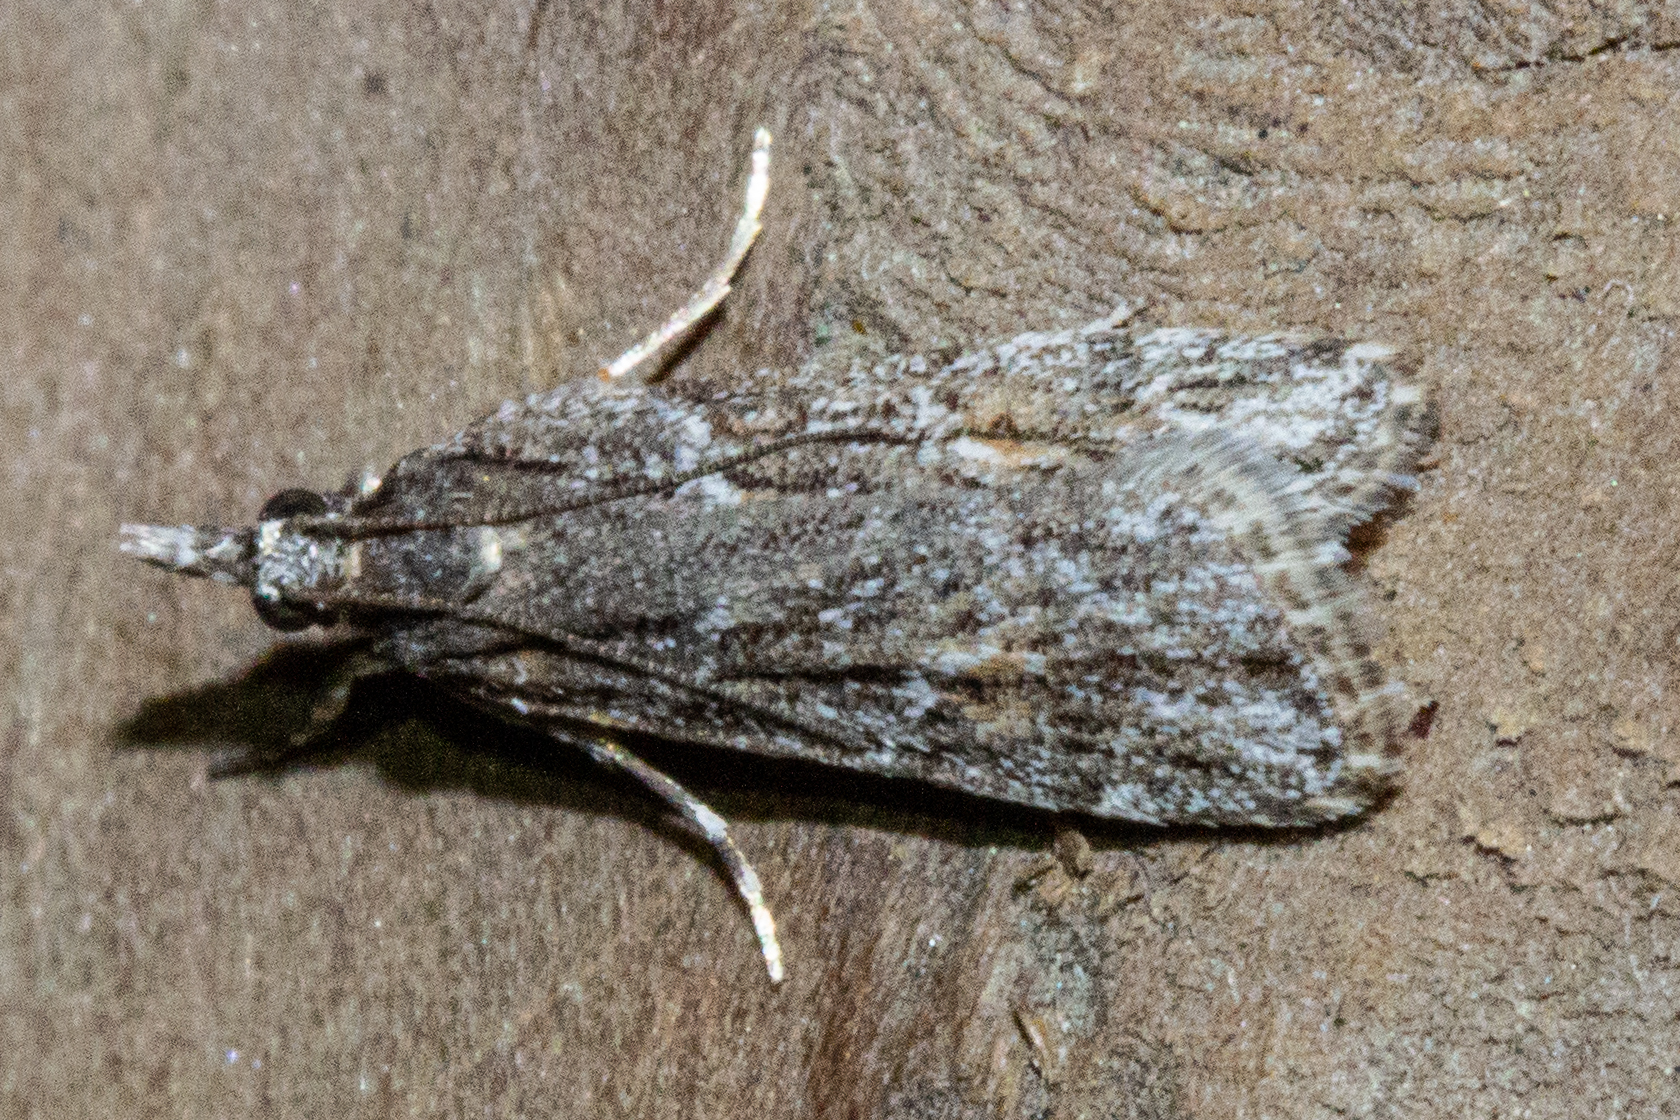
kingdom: Animalia
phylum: Arthropoda
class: Insecta
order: Lepidoptera
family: Crambidae
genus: Scoparia
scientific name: Scoparia chalicodes
